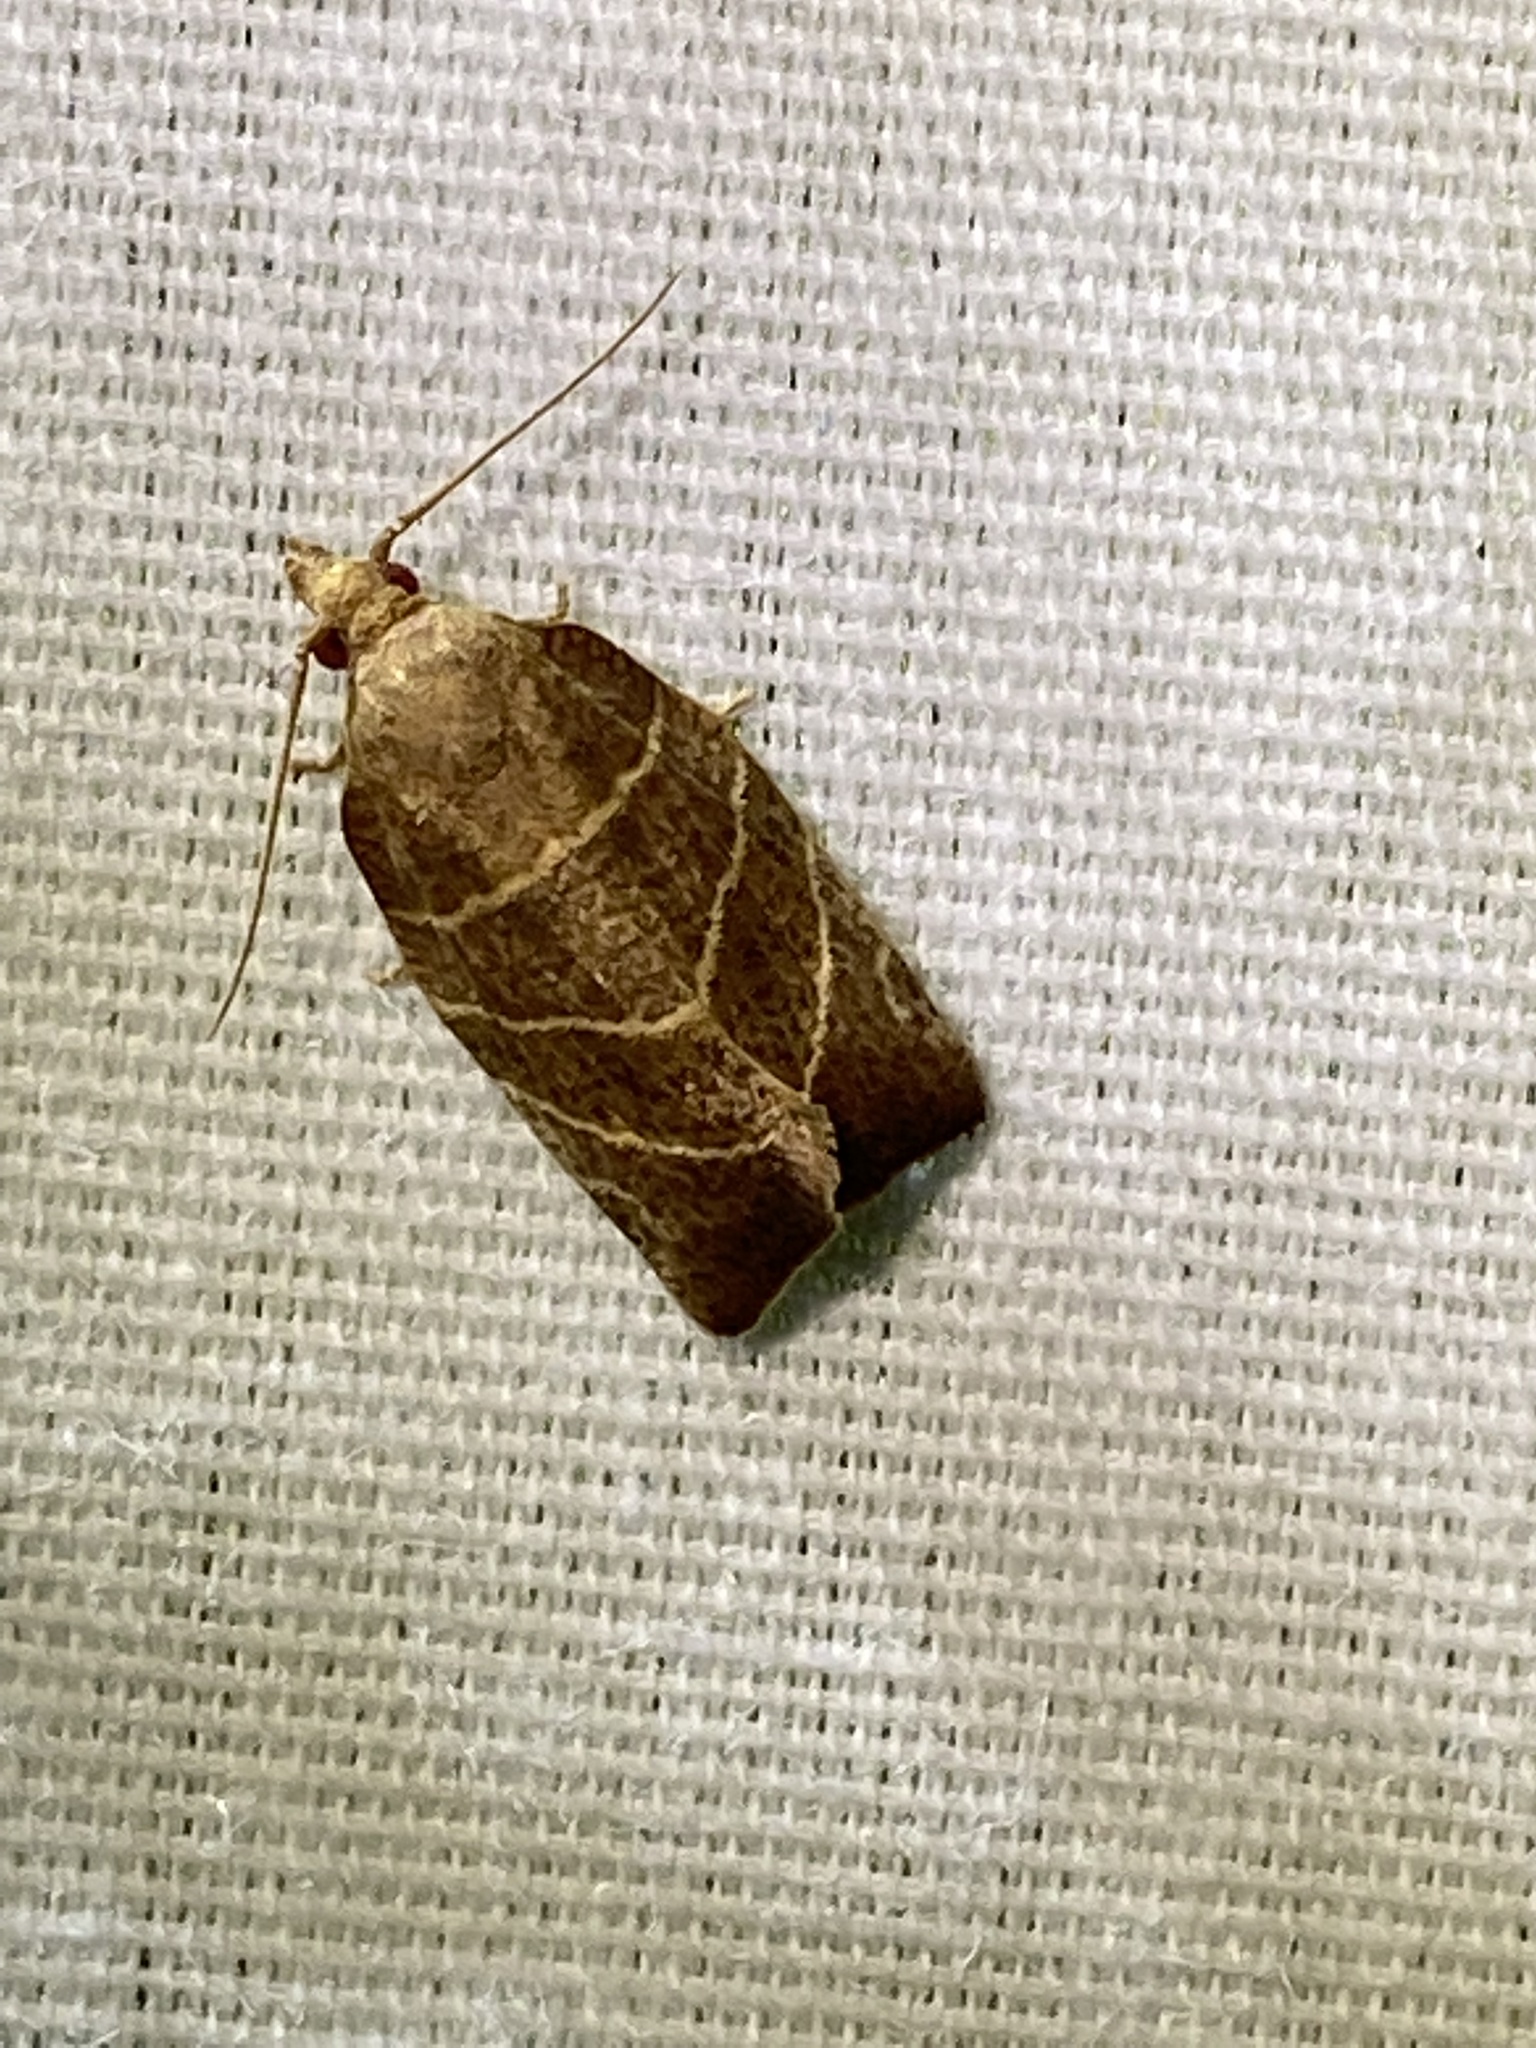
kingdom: Animalia
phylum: Arthropoda
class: Insecta
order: Lepidoptera
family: Tortricidae
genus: Pandemis
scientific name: Pandemis limitata
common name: Three-lined leafroller moth
